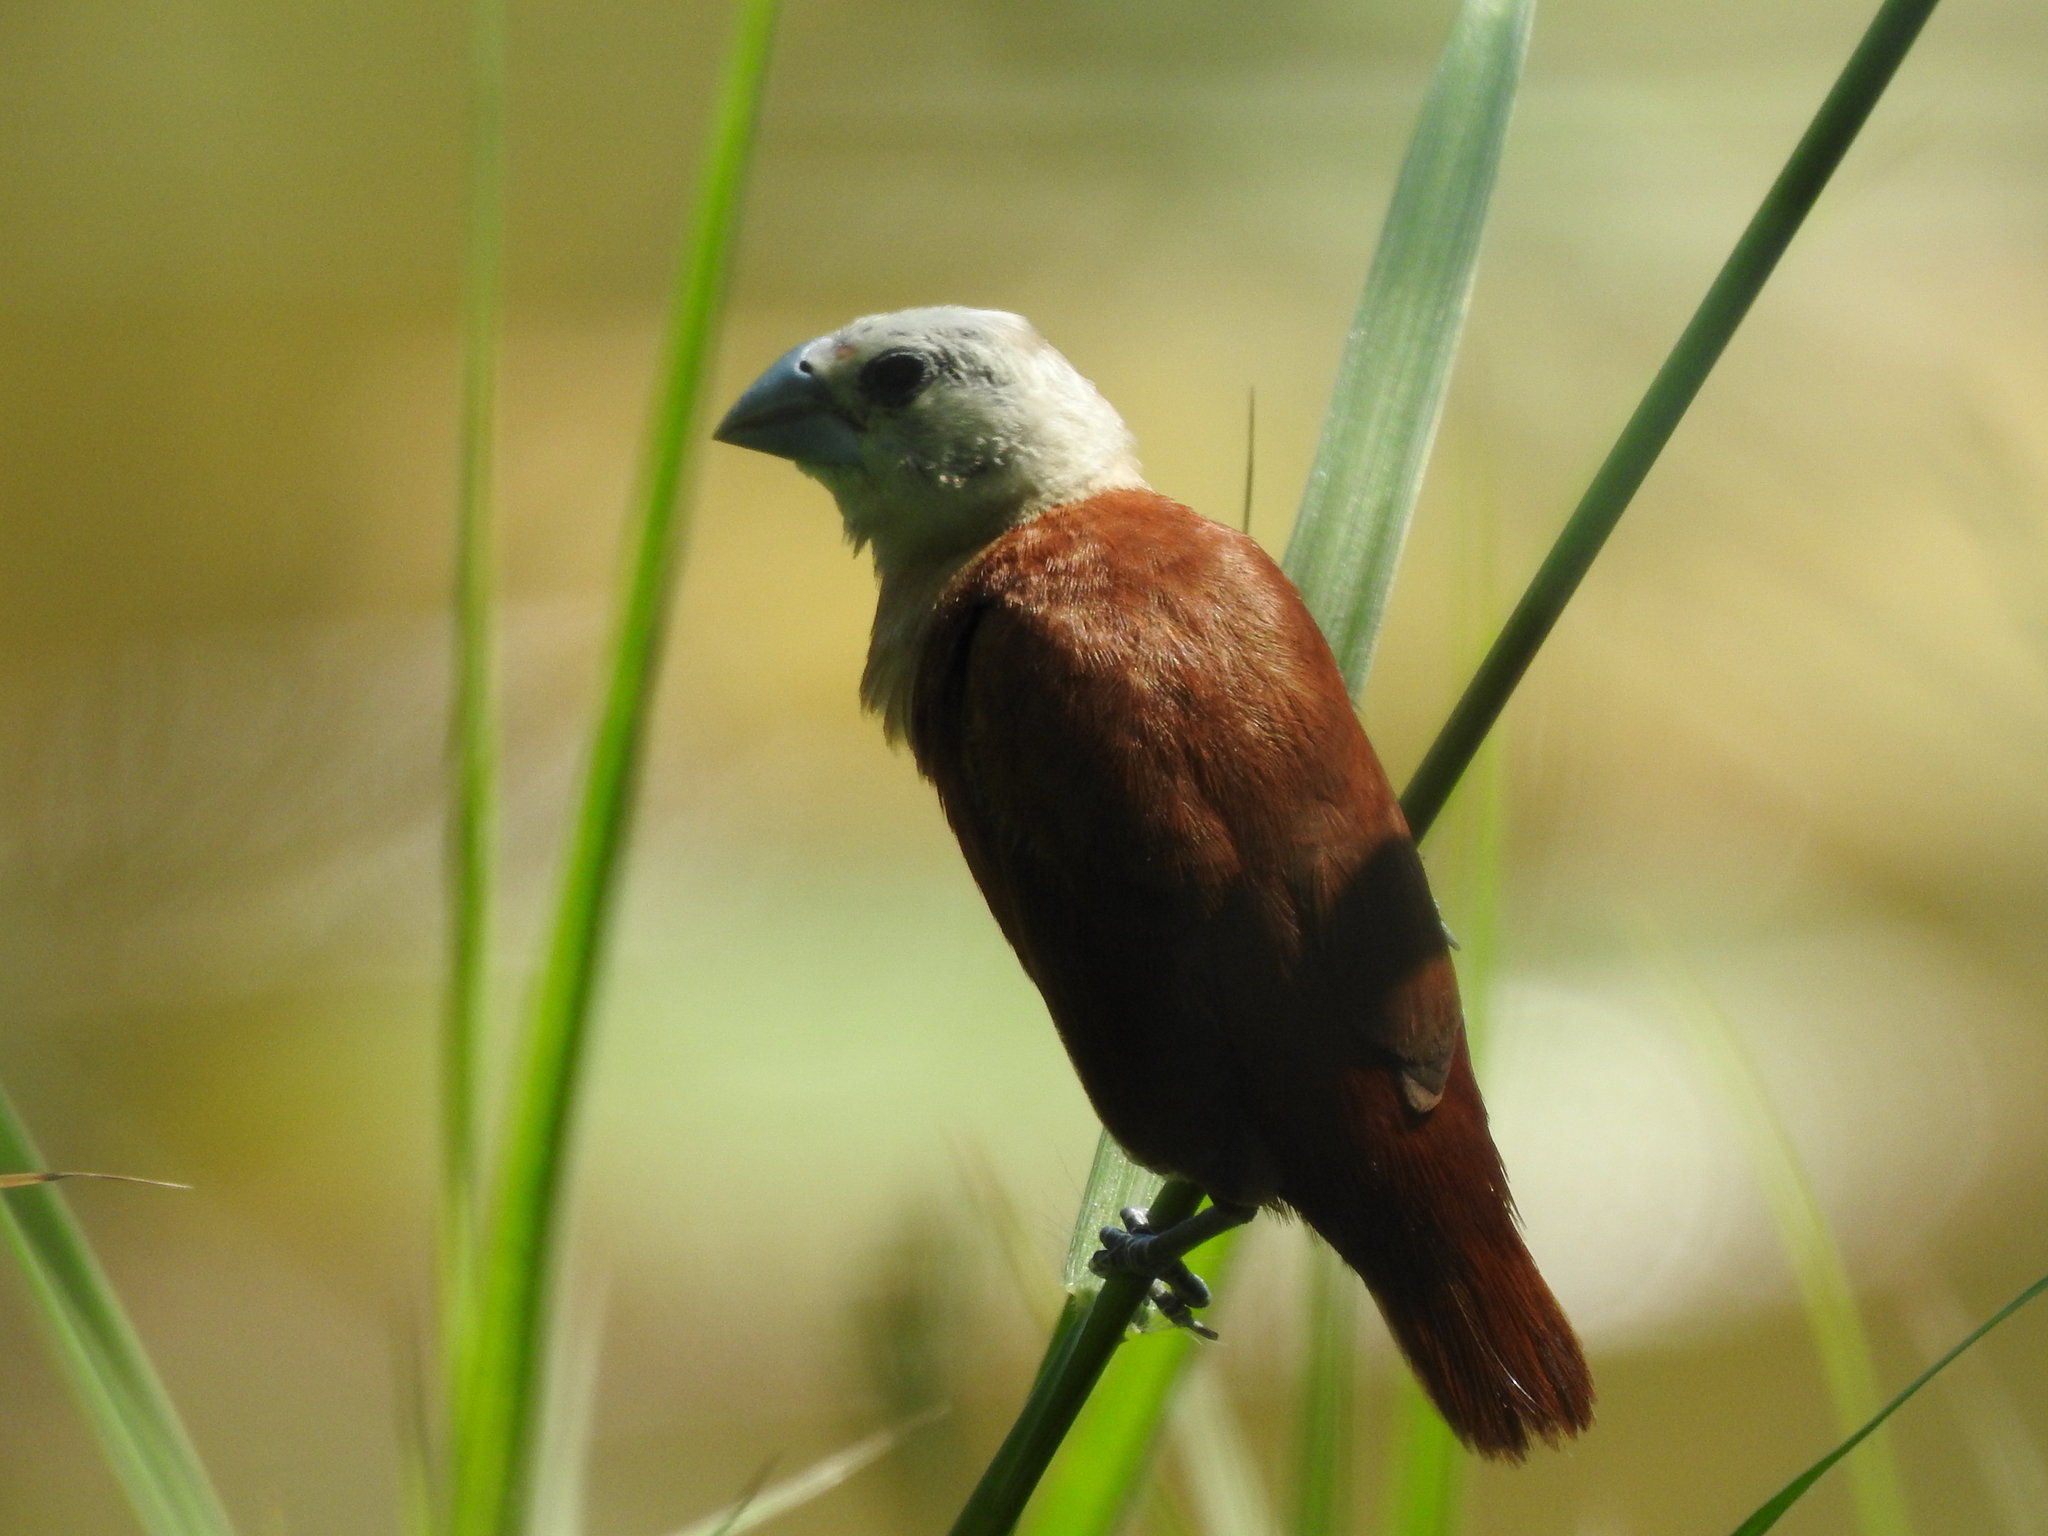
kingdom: Animalia
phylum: Chordata
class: Aves
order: Passeriformes
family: Estrildidae
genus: Lonchura
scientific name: Lonchura maja
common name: White-headed munia
